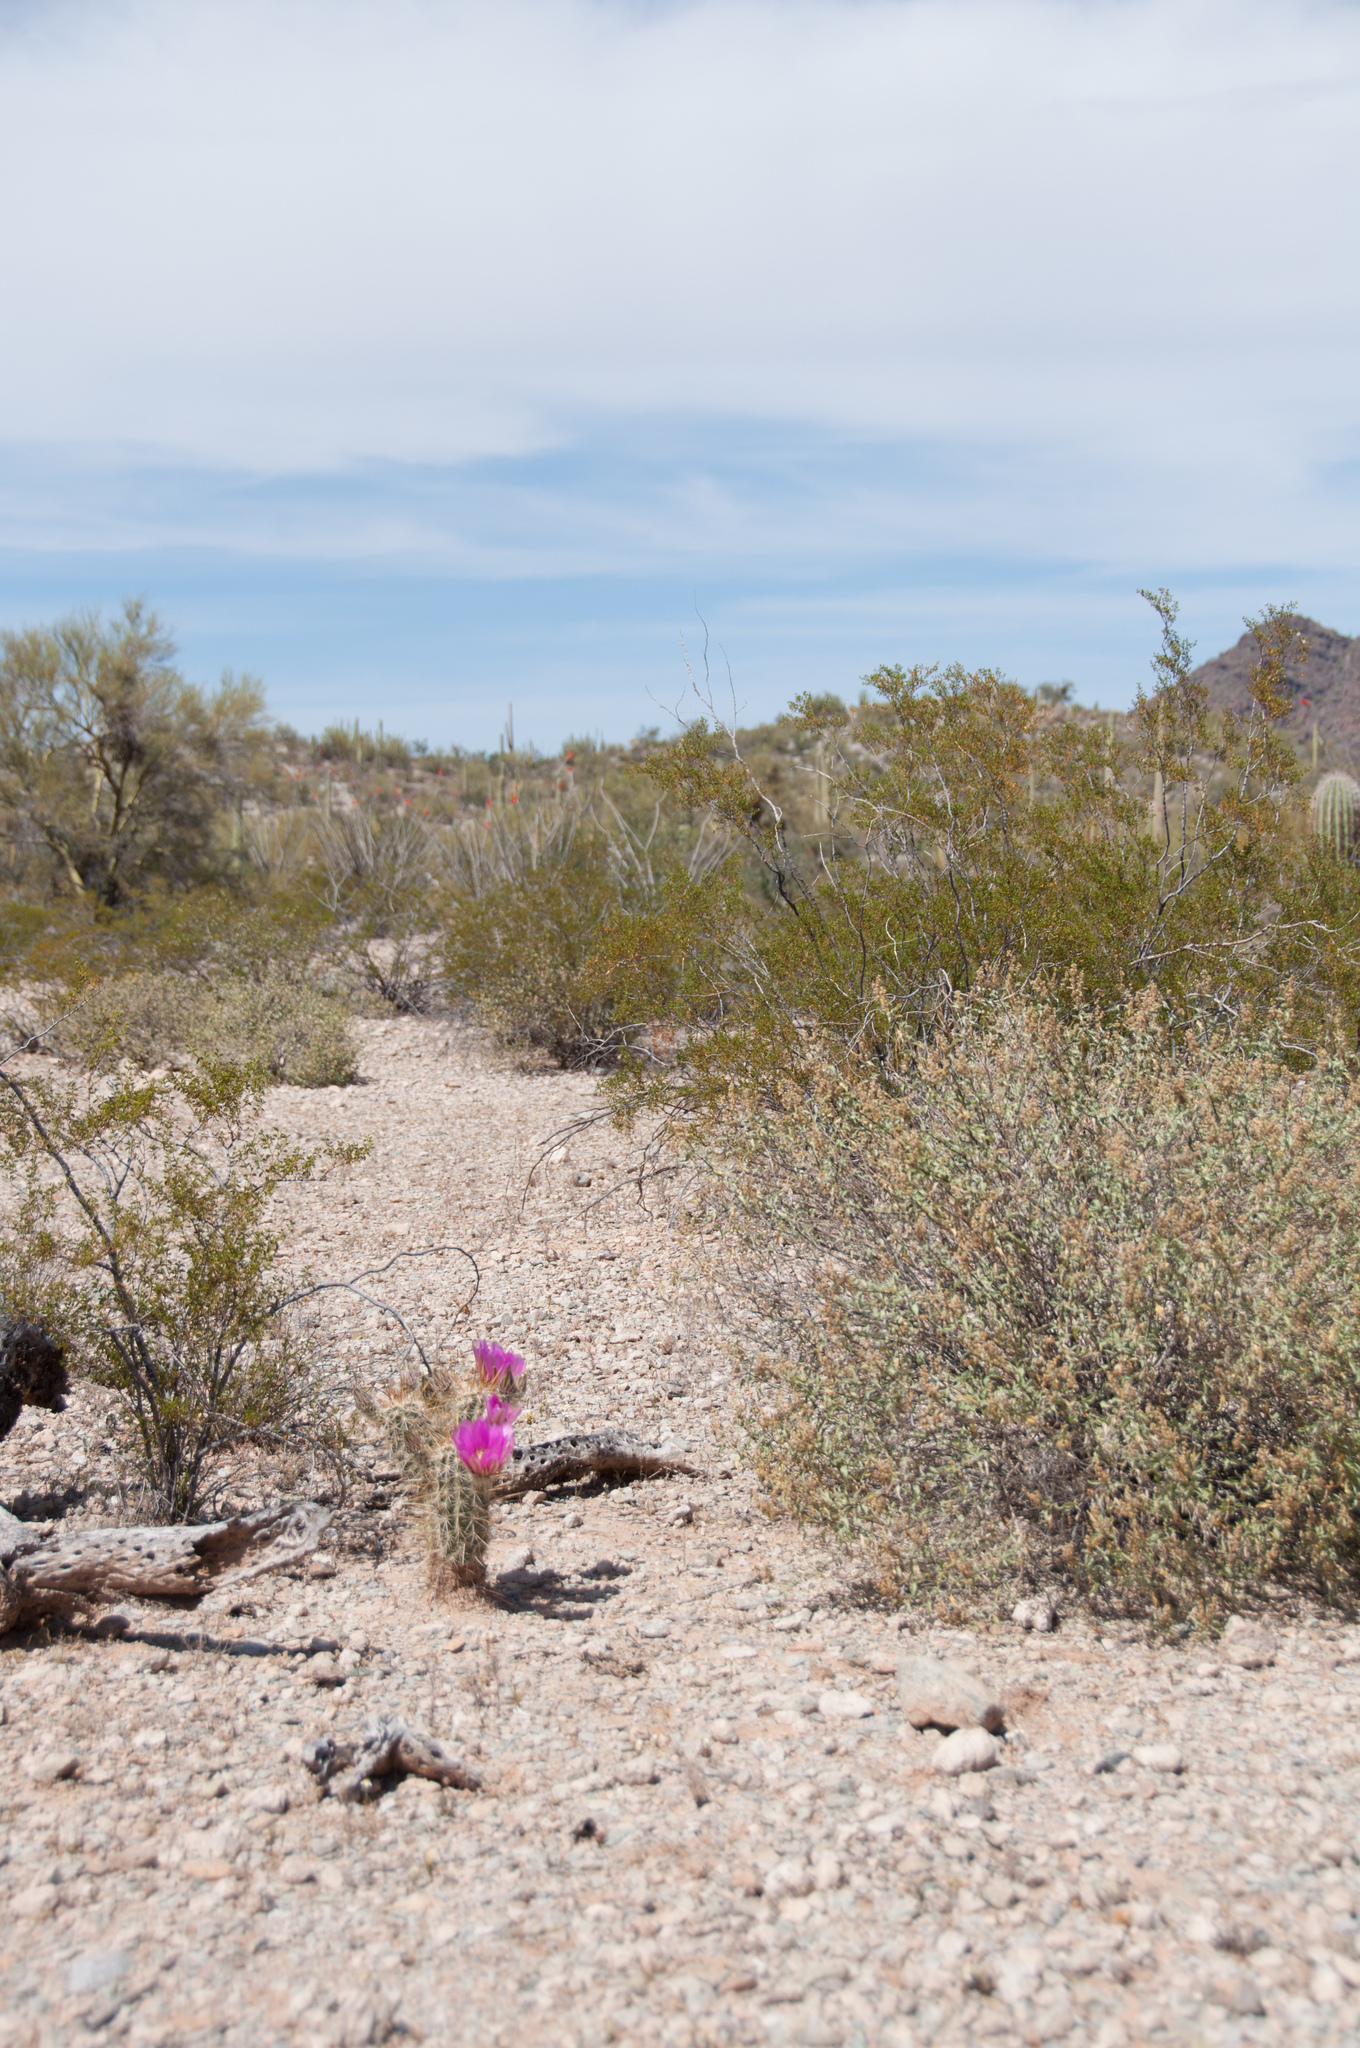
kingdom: Plantae
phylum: Tracheophyta
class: Magnoliopsida
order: Caryophyllales
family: Cactaceae
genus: Echinocereus
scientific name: Echinocereus engelmannii
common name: Engelmann's hedgehog cactus
